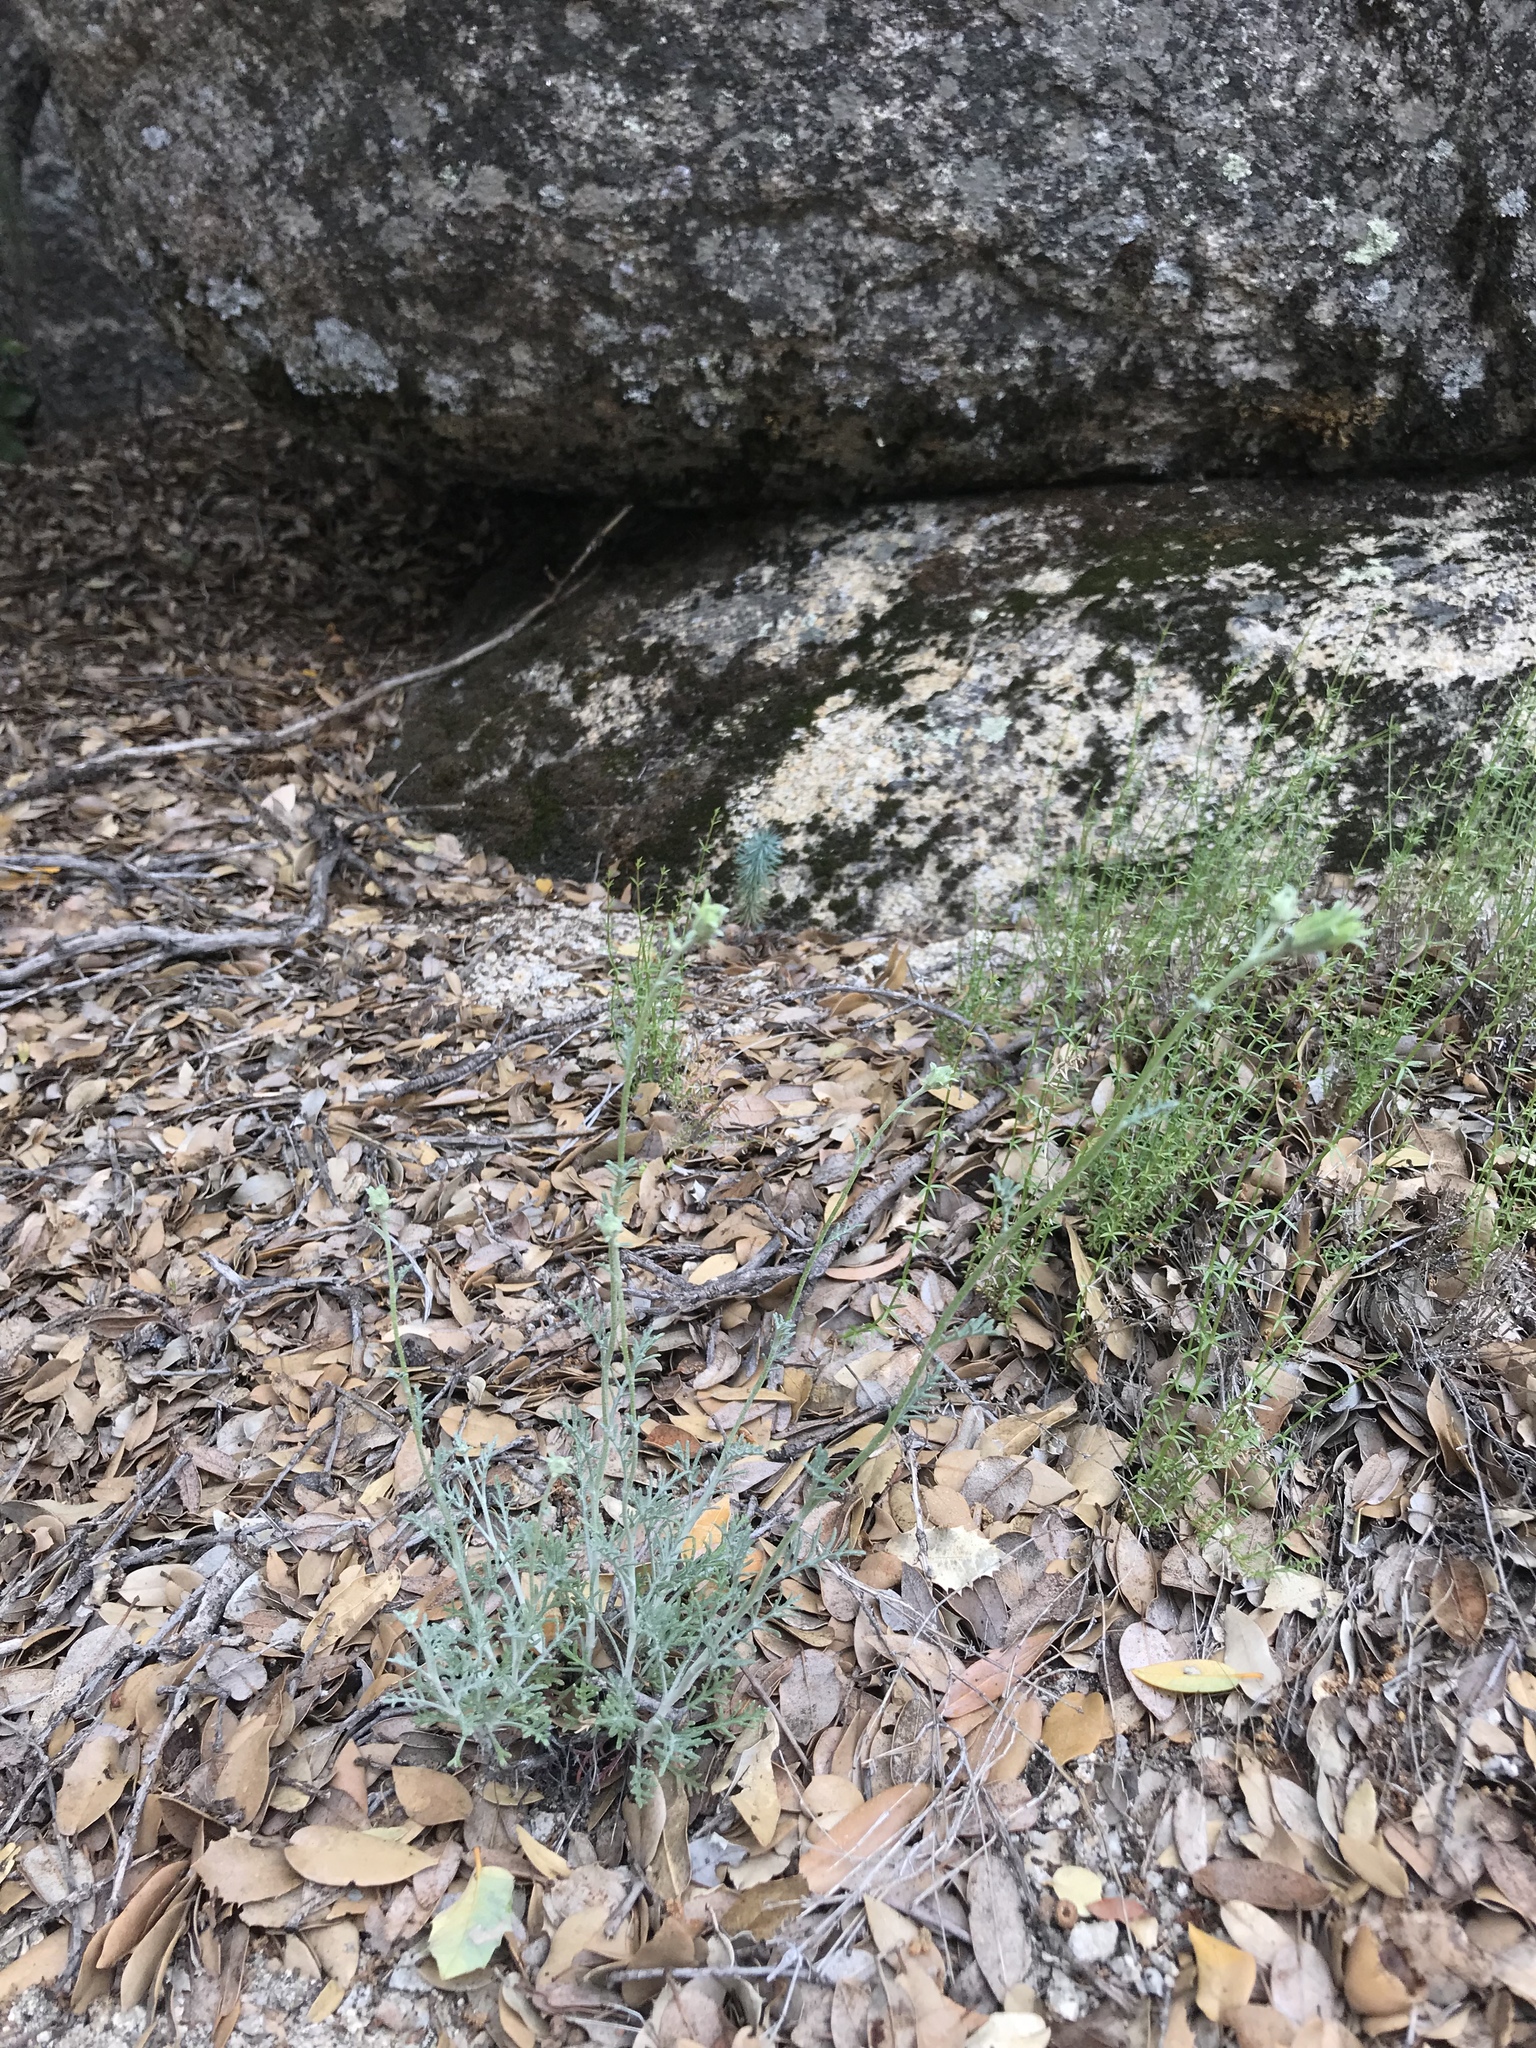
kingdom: Plantae
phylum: Tracheophyta
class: Magnoliopsida
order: Asterales
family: Asteraceae
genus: Chaenactis
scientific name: Chaenactis parishii
